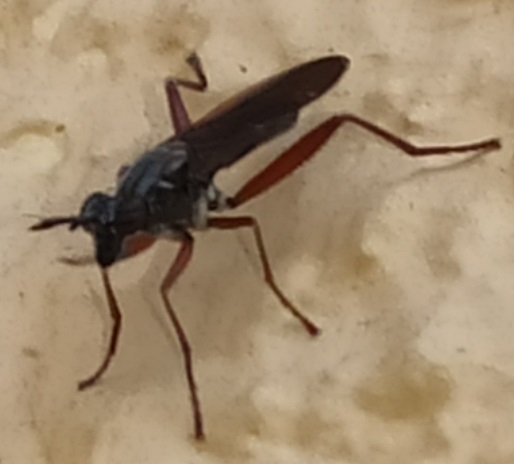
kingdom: Animalia
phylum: Arthropoda
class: Insecta
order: Diptera
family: Sciomyzidae
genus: Sepedon
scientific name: Sepedon sphegea
